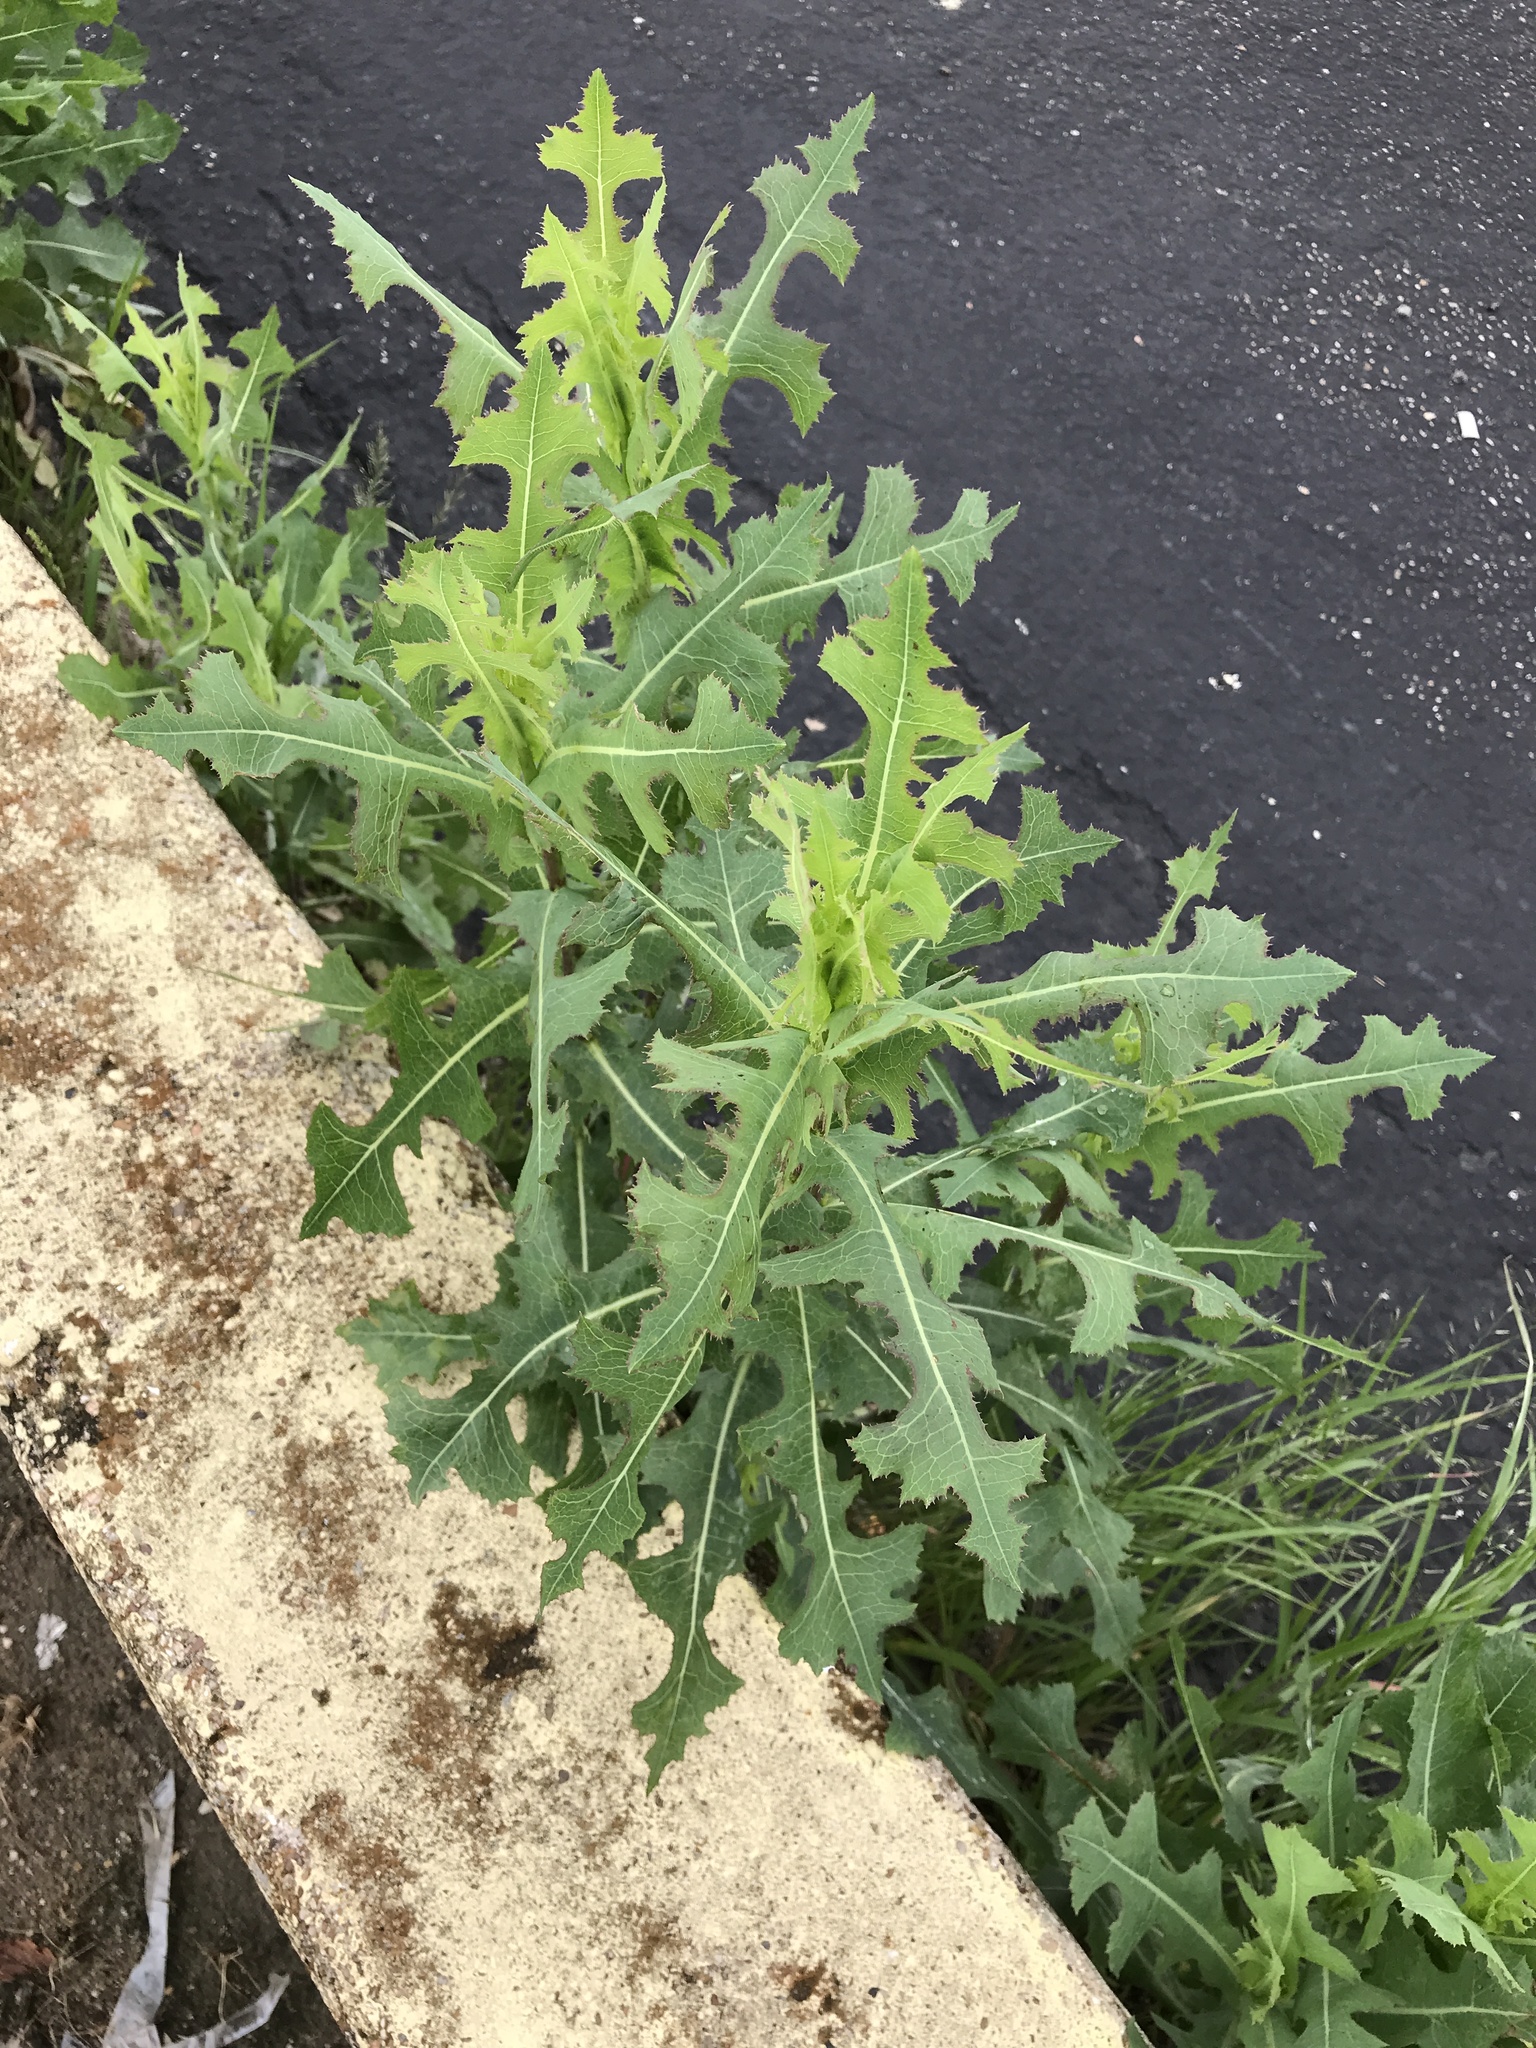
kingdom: Plantae
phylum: Tracheophyta
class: Magnoliopsida
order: Asterales
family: Asteraceae
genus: Lactuca
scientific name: Lactuca serriola
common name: Prickly lettuce
